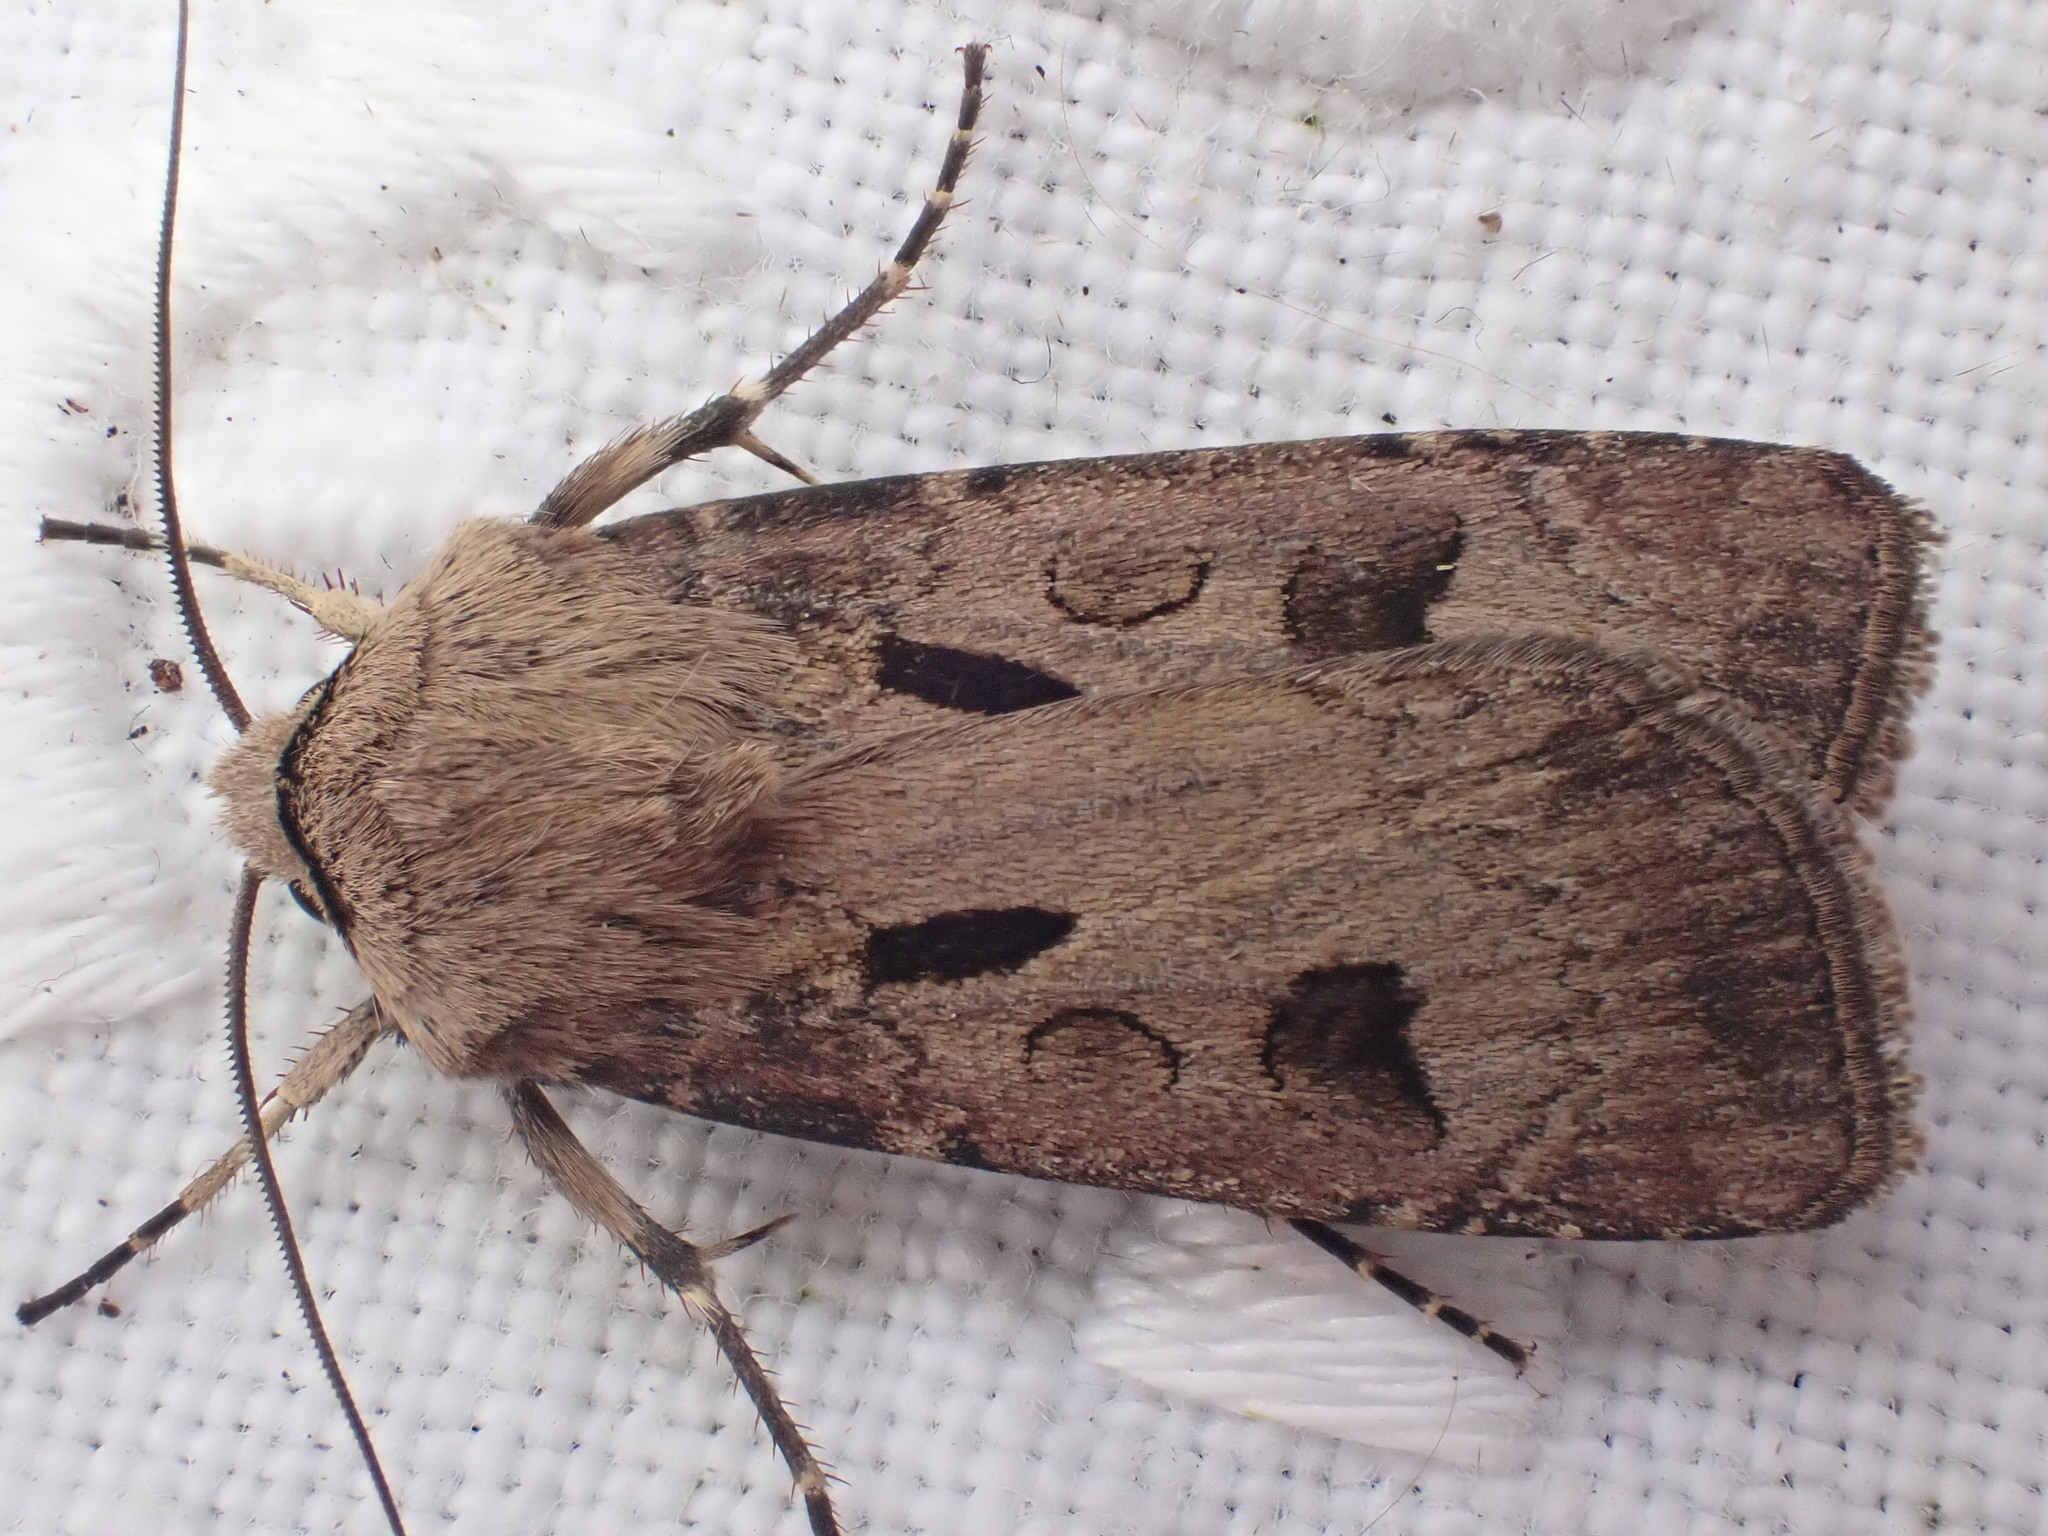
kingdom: Animalia
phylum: Arthropoda
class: Insecta
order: Lepidoptera
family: Noctuidae
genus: Agrotis
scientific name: Agrotis exclamationis
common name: Heart and dart
